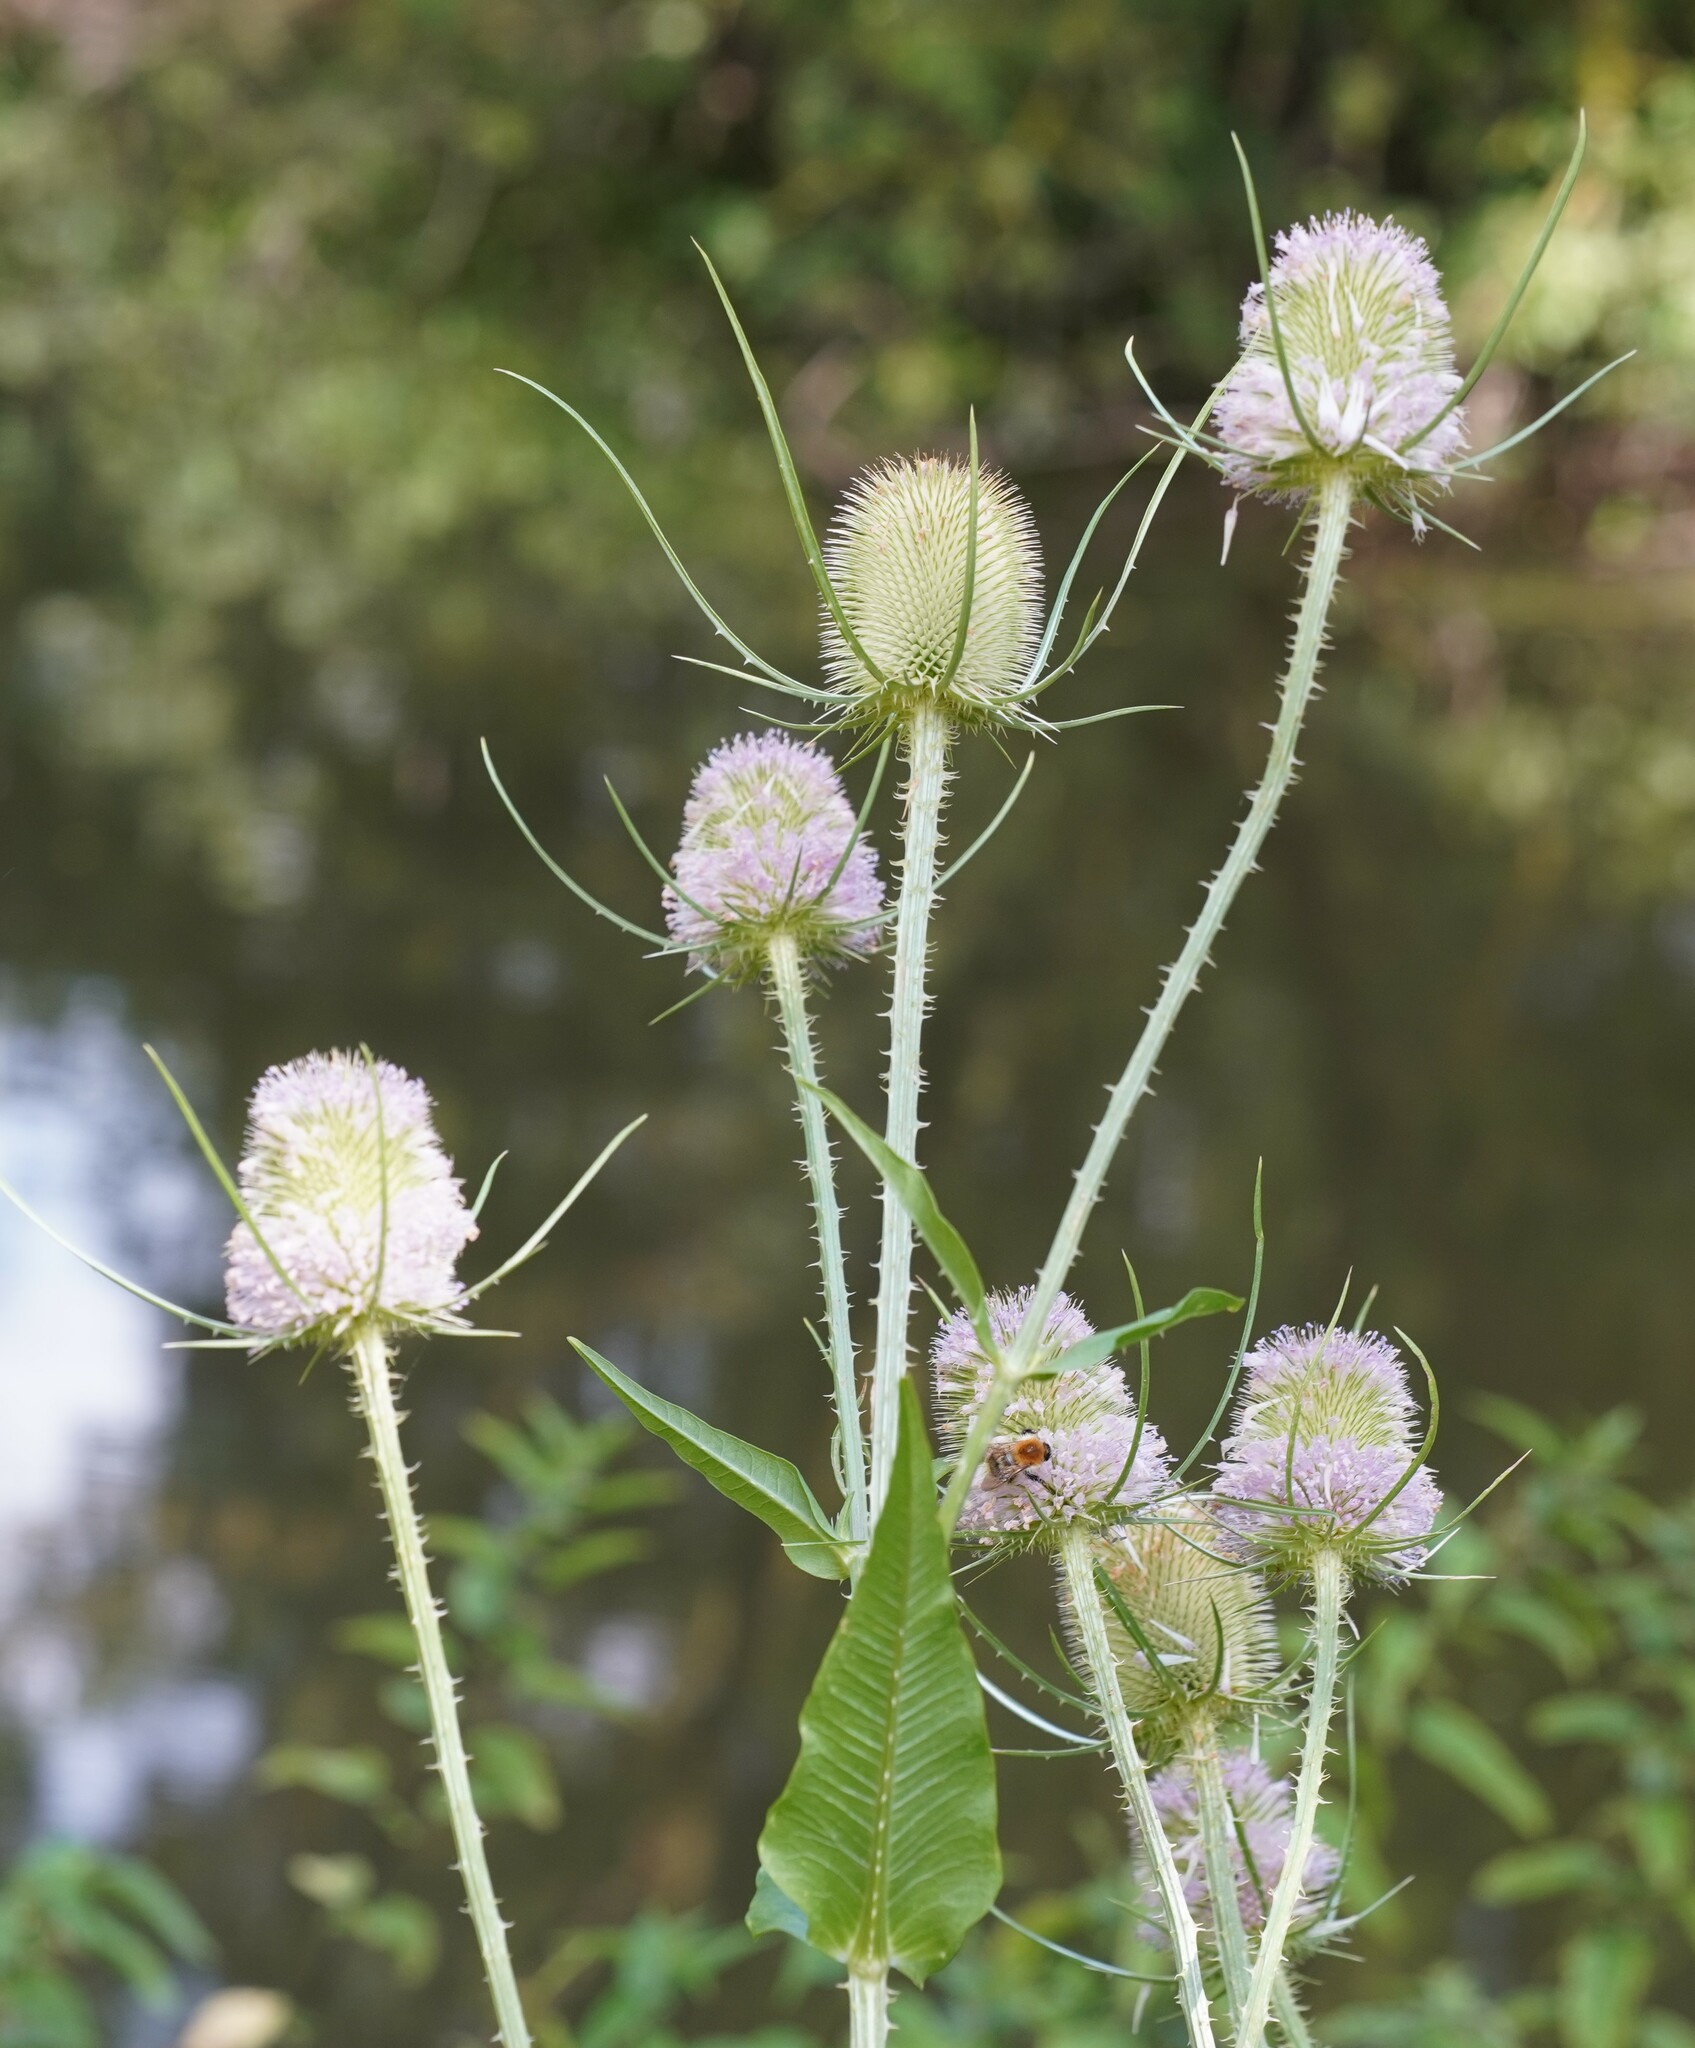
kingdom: Plantae
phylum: Tracheophyta
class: Magnoliopsida
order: Dipsacales
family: Caprifoliaceae
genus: Dipsacus
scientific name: Dipsacus fullonum
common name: Teasel
